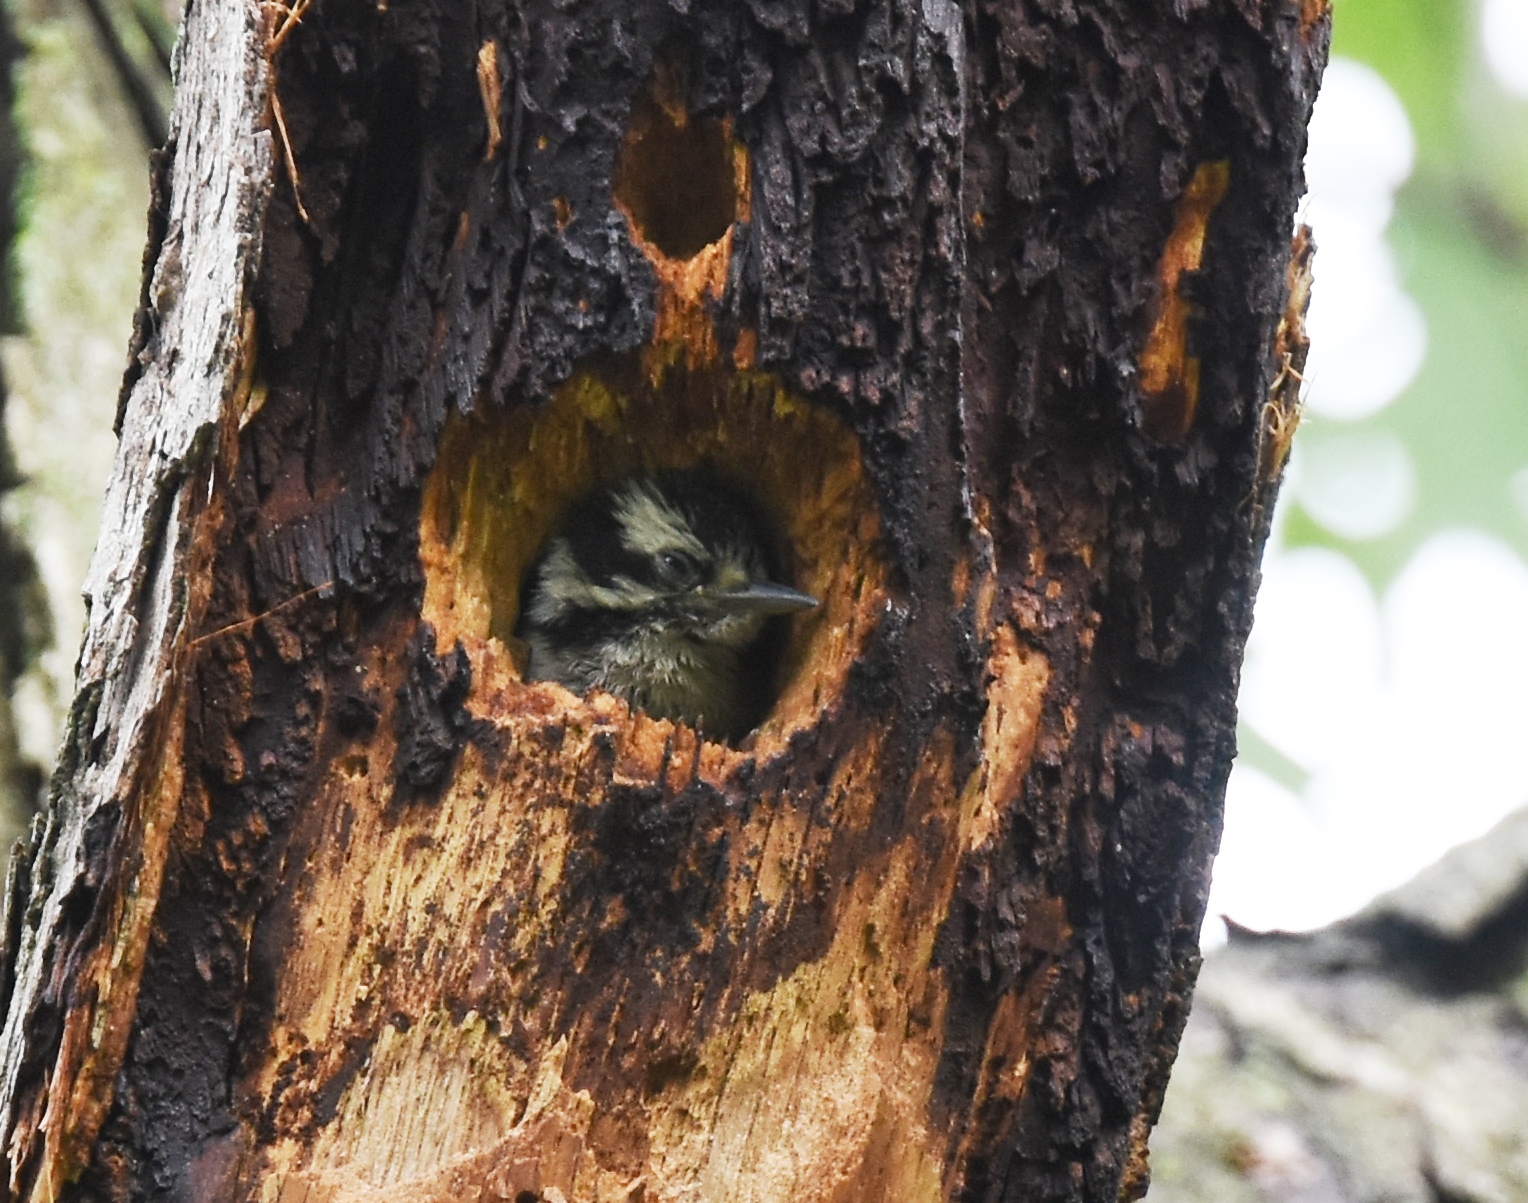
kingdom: Animalia
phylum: Chordata
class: Aves
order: Piciformes
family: Picidae
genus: Dryobates
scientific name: Dryobates pubescens
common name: Downy woodpecker
